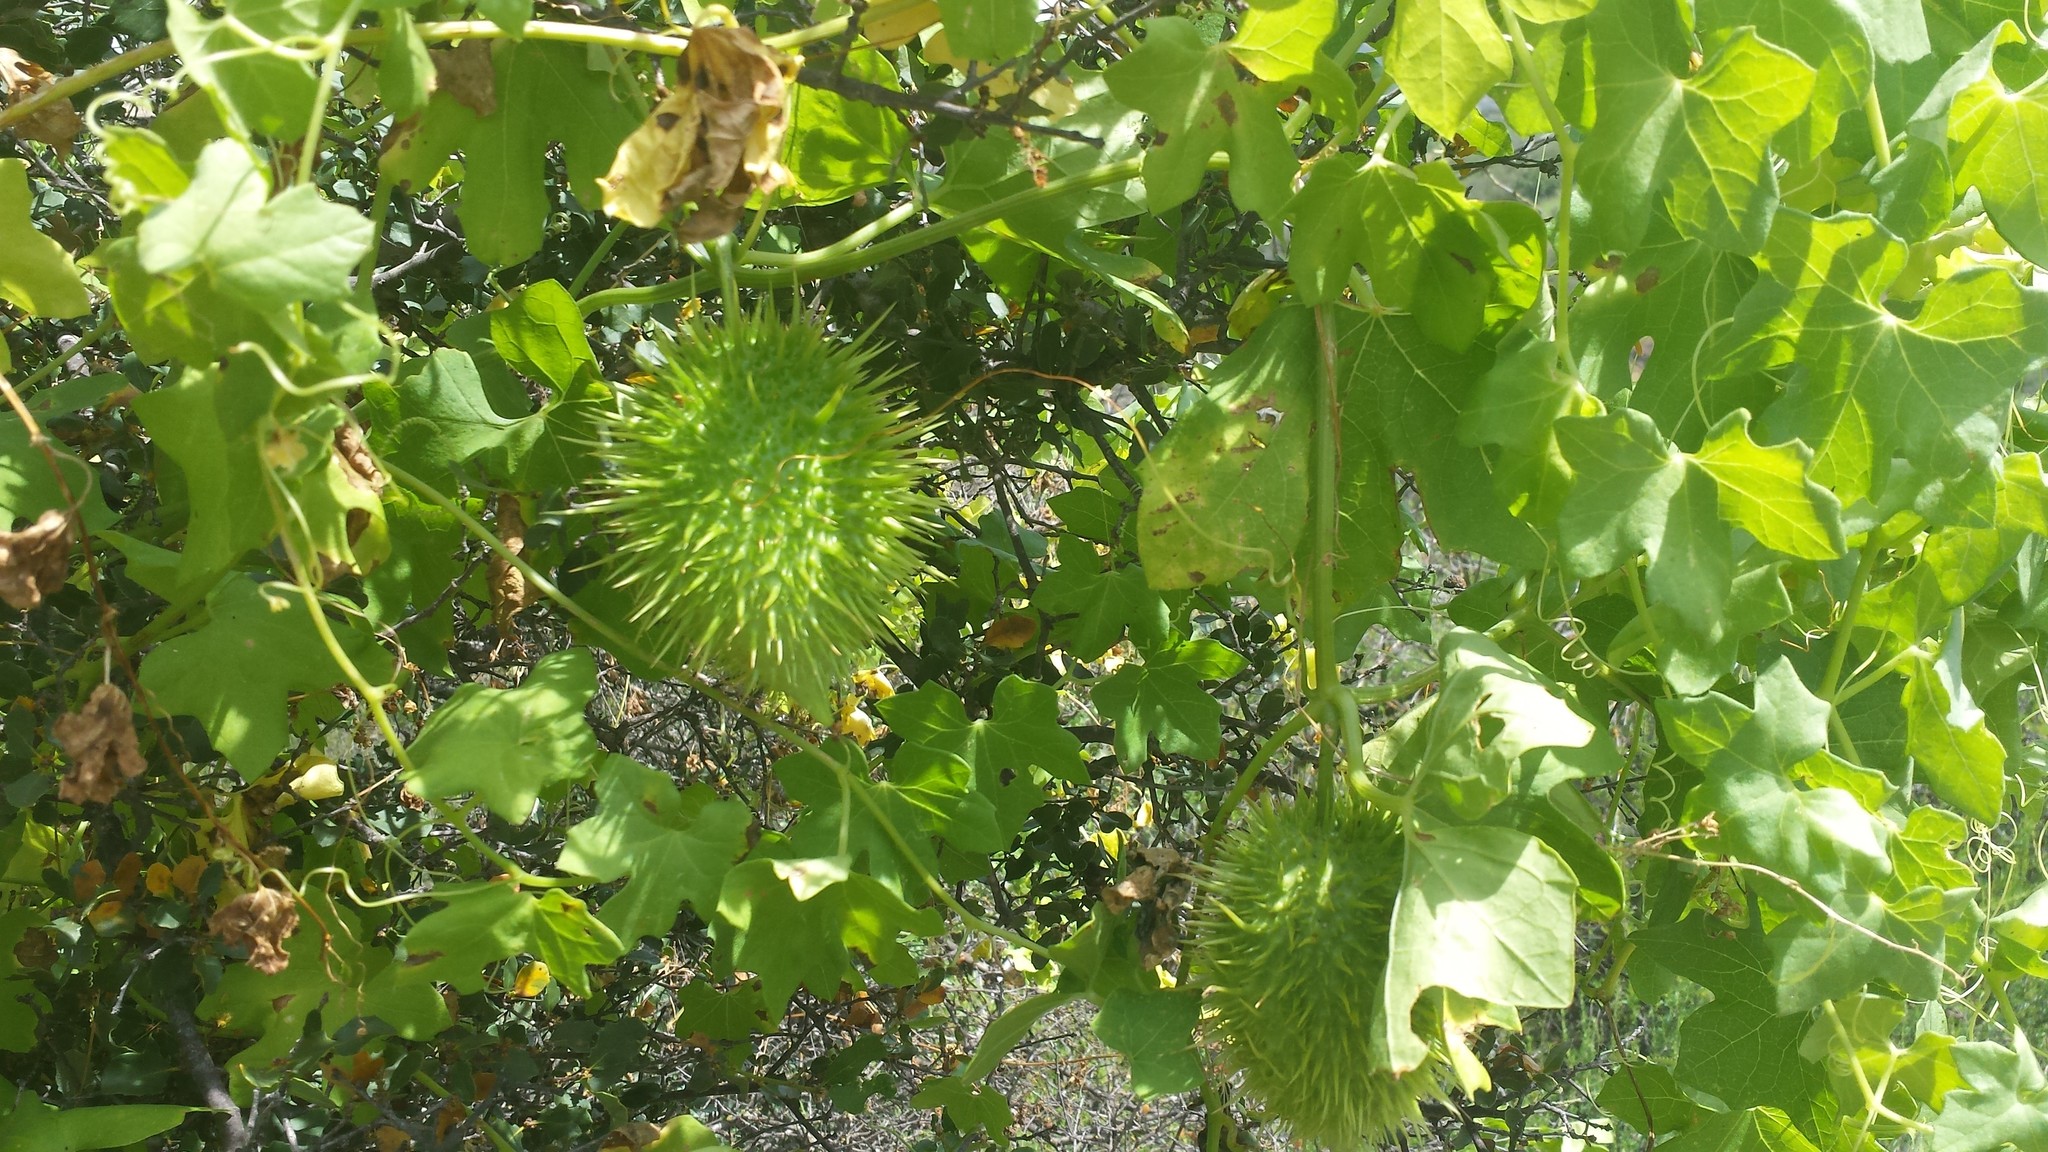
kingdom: Plantae
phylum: Tracheophyta
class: Magnoliopsida
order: Cucurbitales
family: Cucurbitaceae
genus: Marah
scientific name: Marah macrocarpa
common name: Cucamonga manroot
